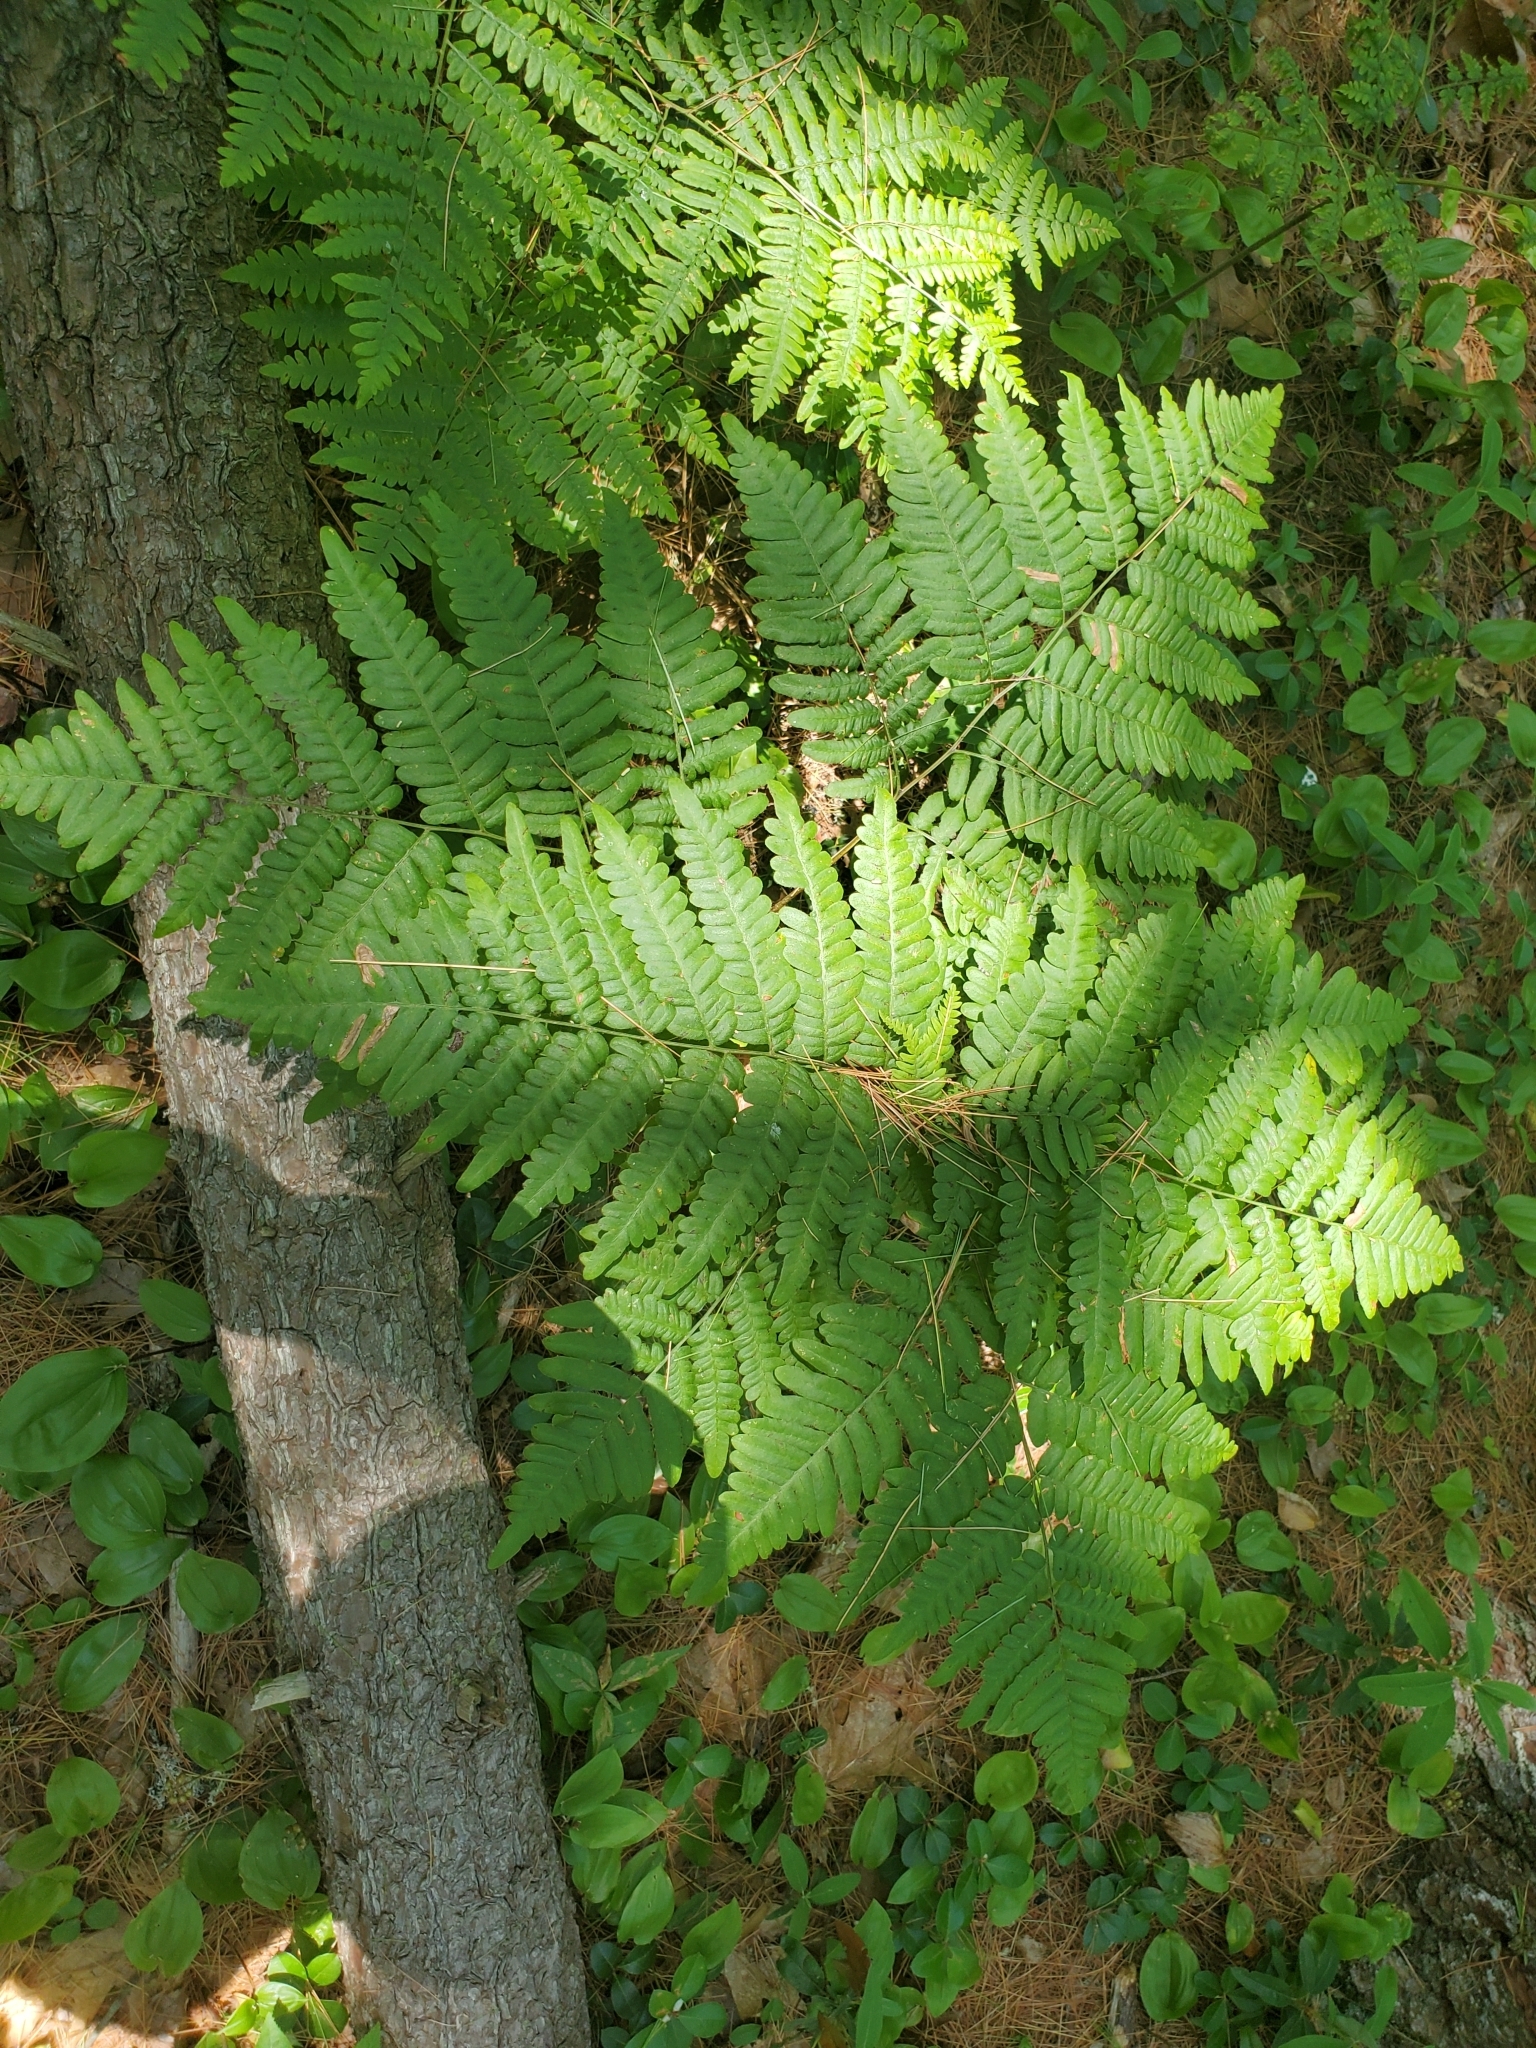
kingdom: Plantae
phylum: Tracheophyta
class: Polypodiopsida
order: Polypodiales
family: Dennstaedtiaceae
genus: Pteridium
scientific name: Pteridium aquilinum
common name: Bracken
